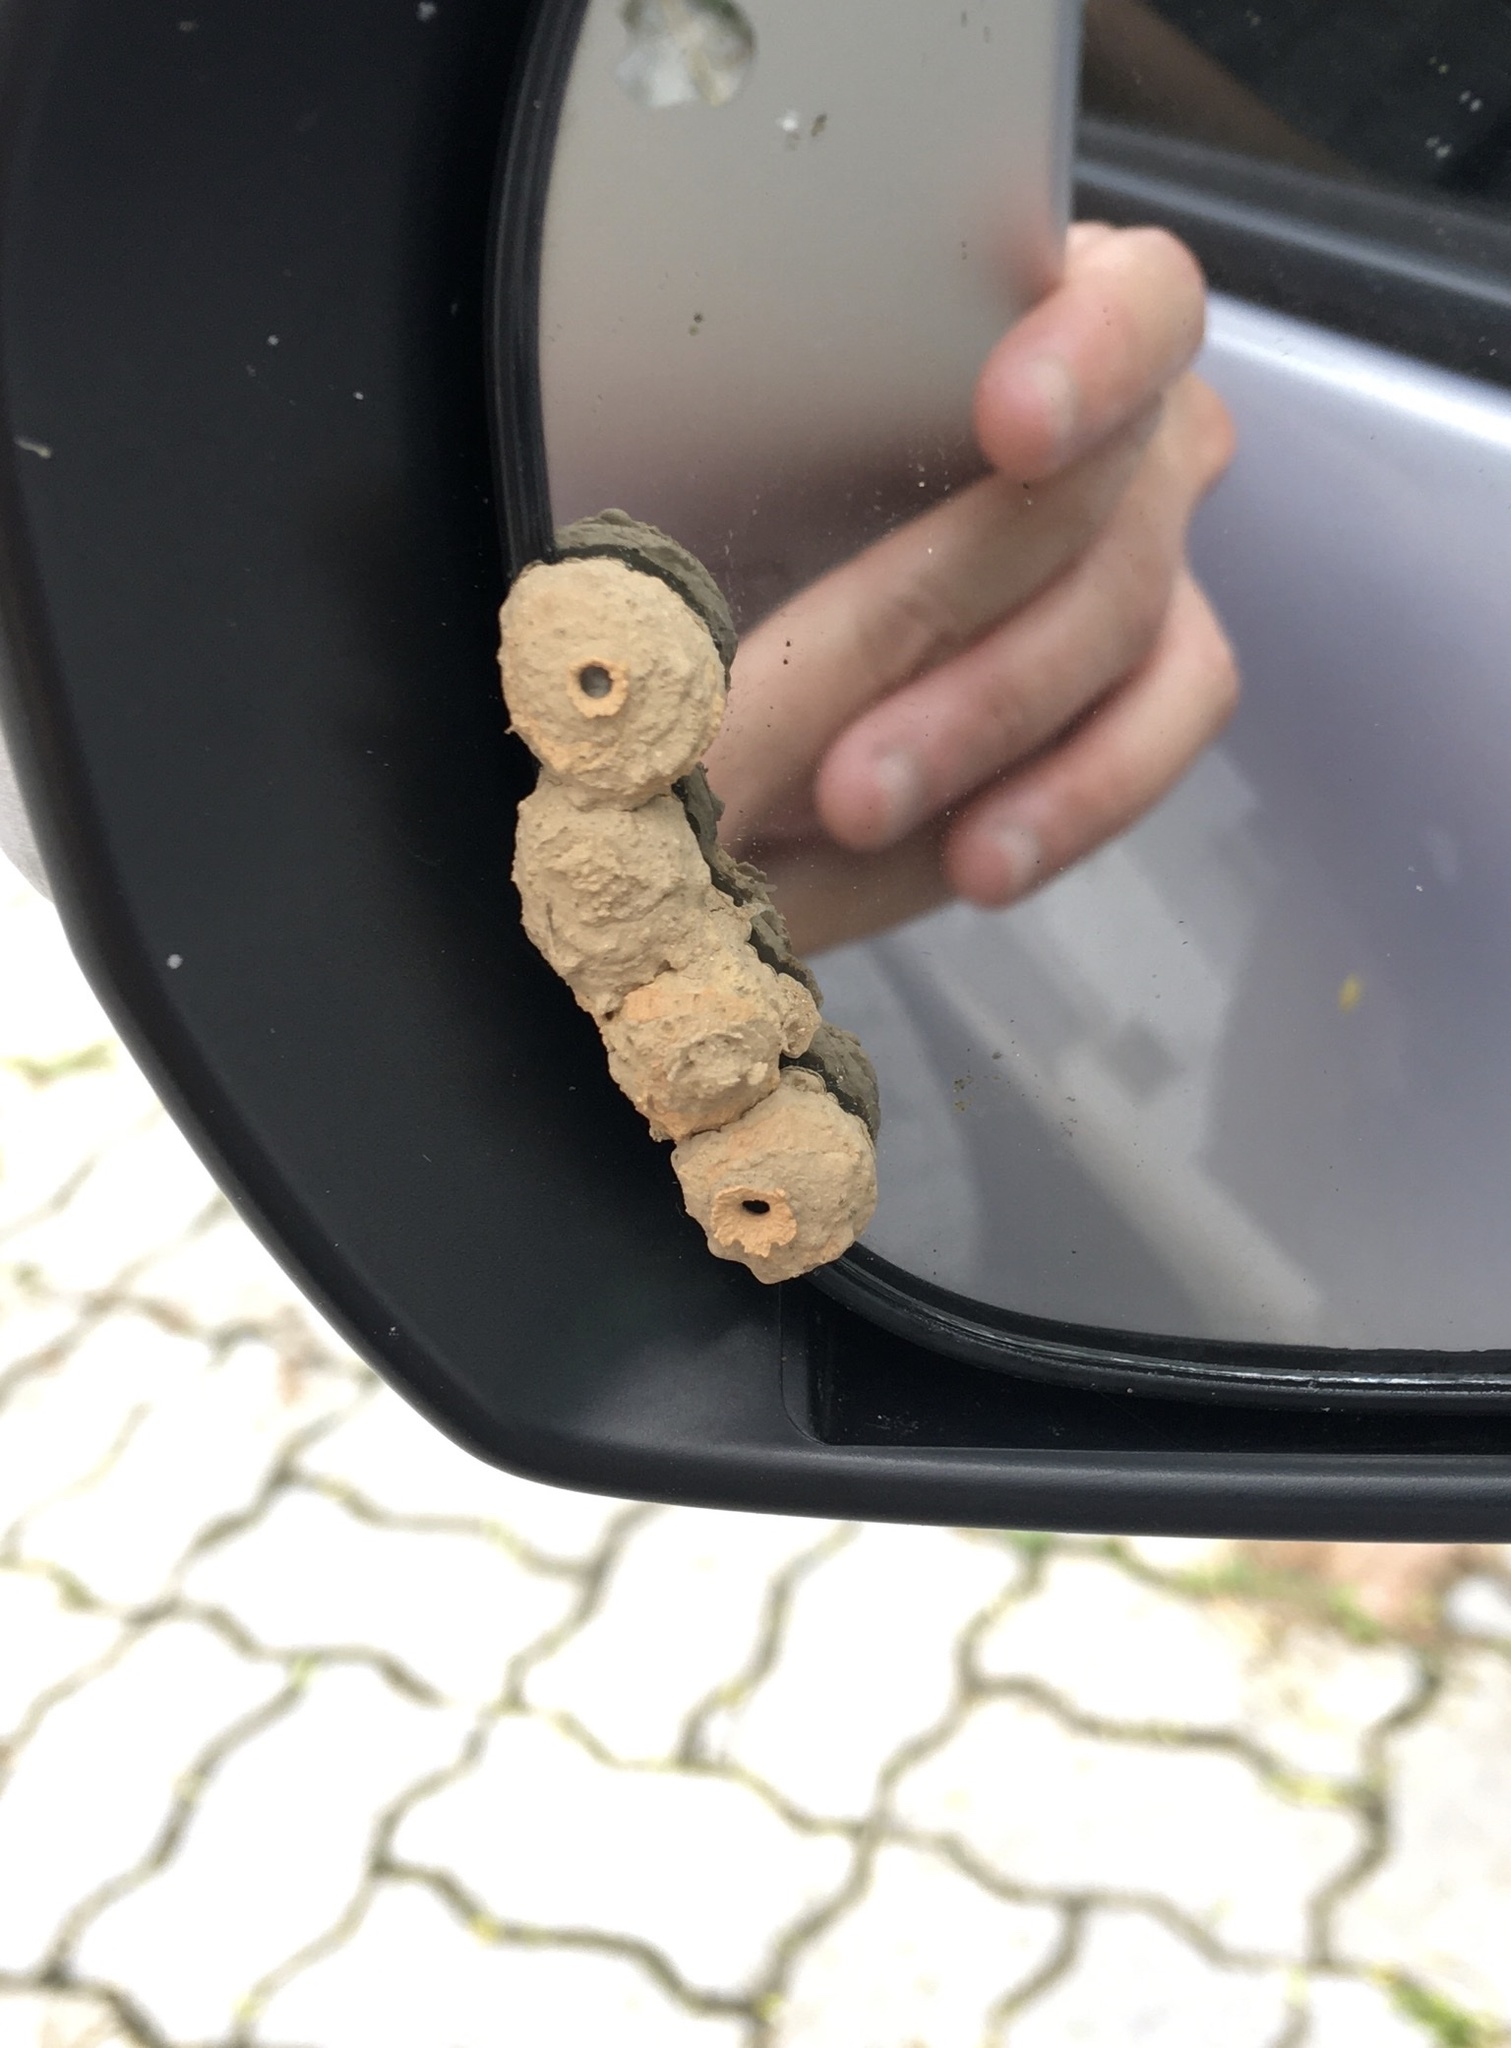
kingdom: Animalia
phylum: Arthropoda
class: Insecta
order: Hymenoptera
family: Eumenidae
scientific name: Eumenidae
